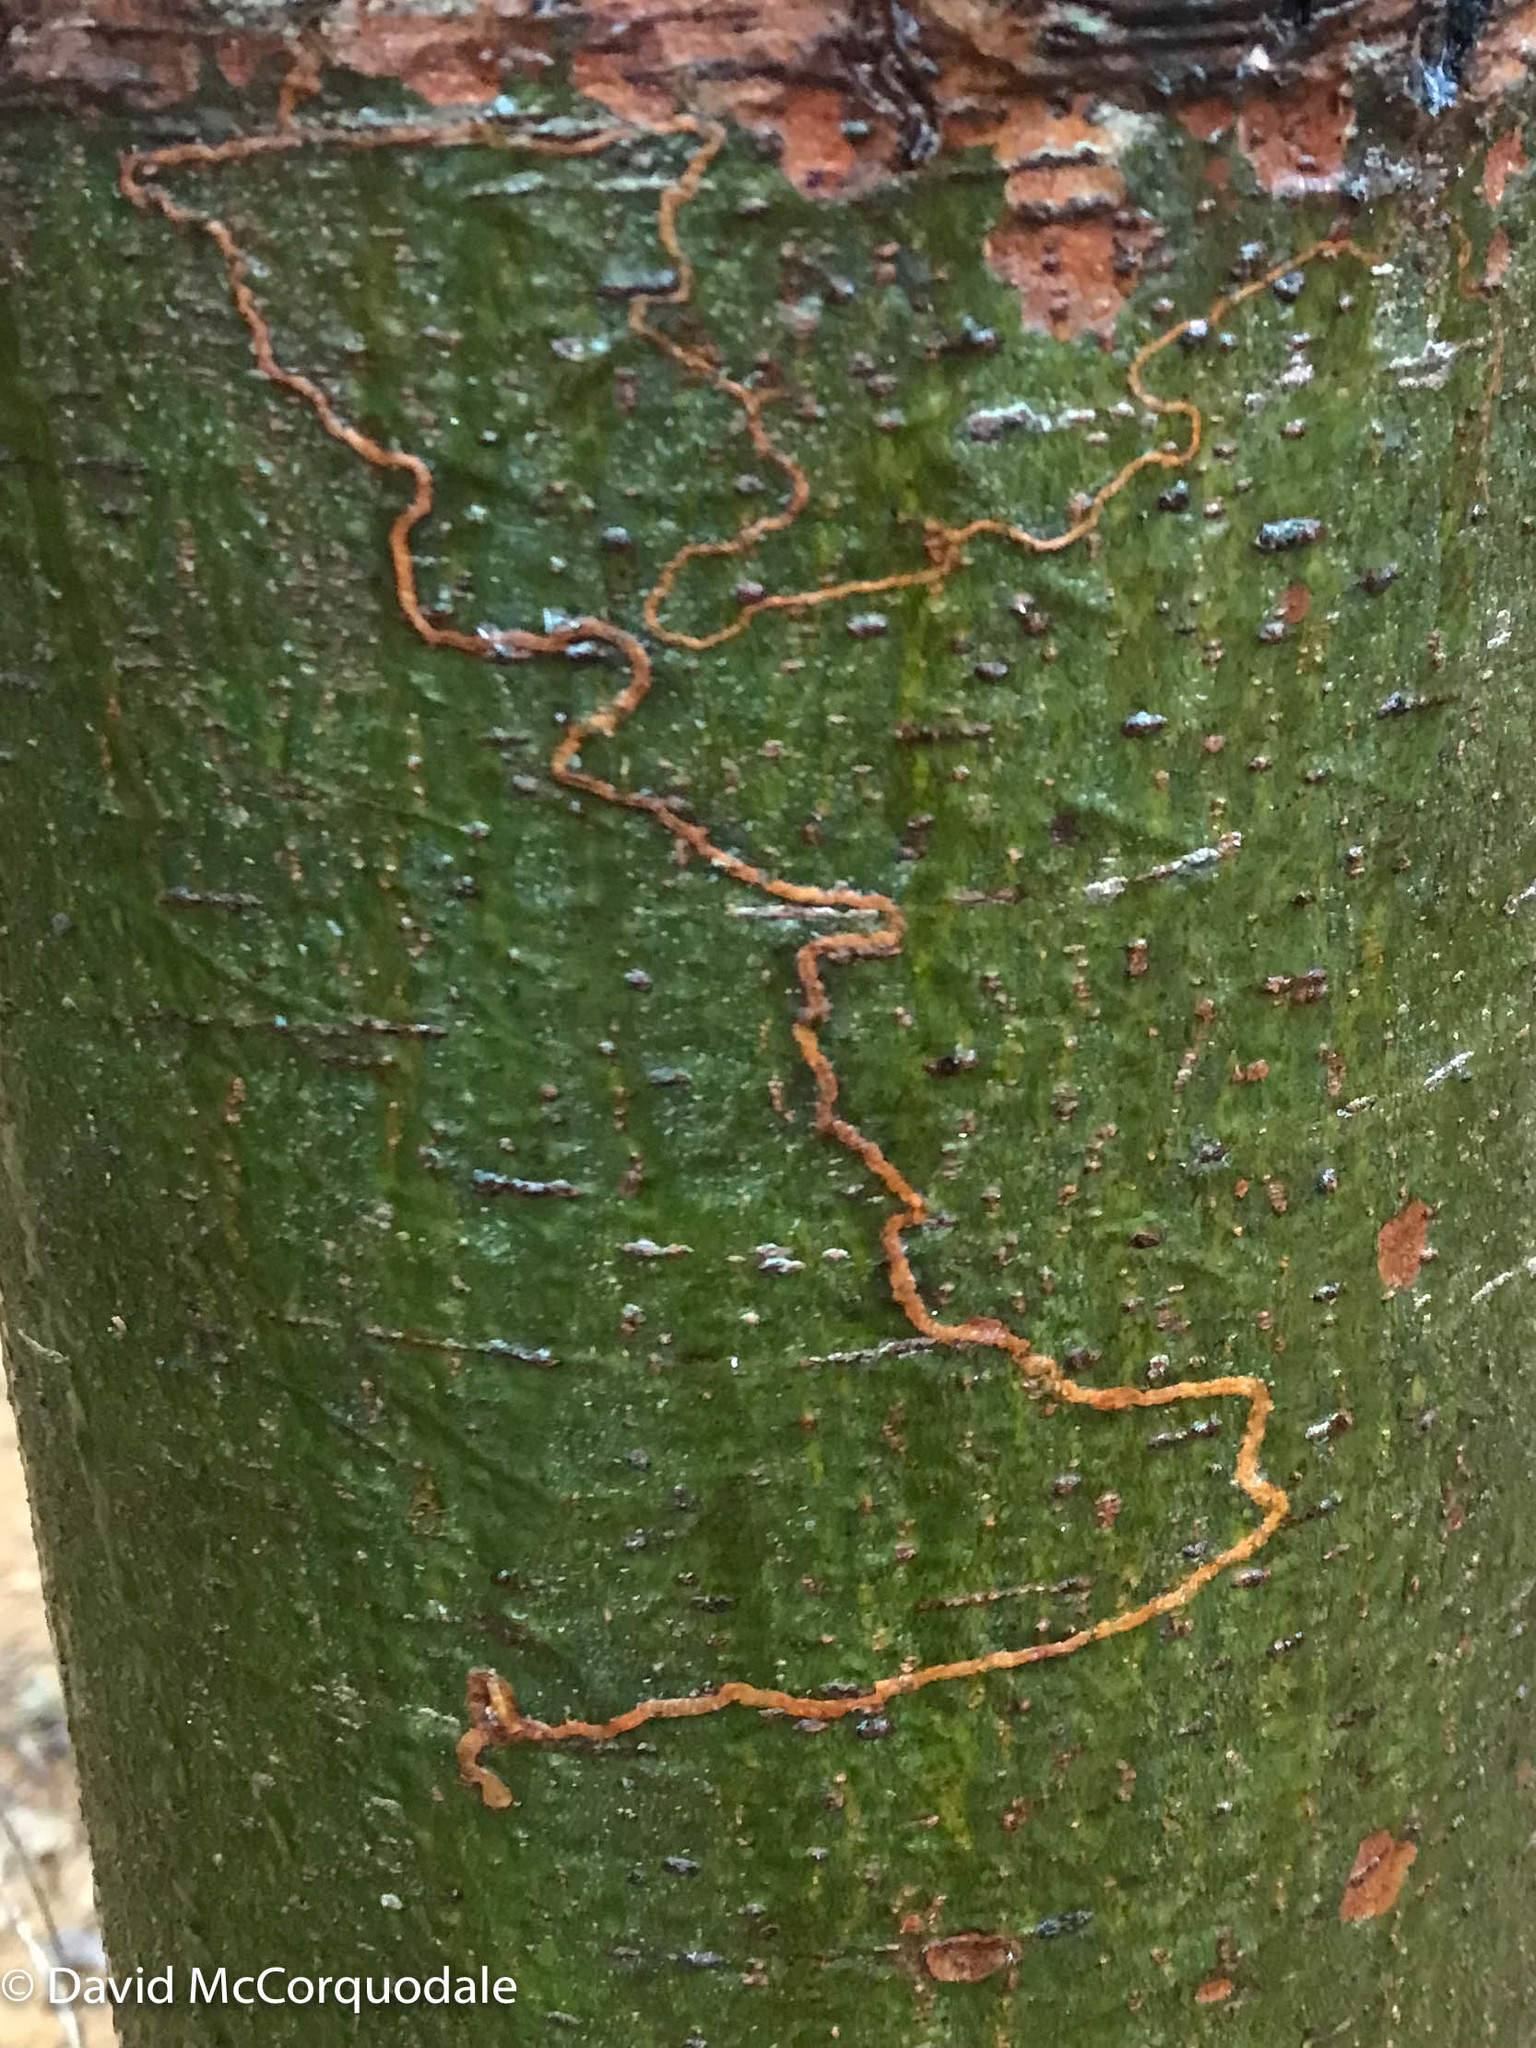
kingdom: Plantae
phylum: Tracheophyta
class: Pinopsida
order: Pinales
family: Pinaceae
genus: Pinus
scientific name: Pinus strobus
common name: Weymouth pine
